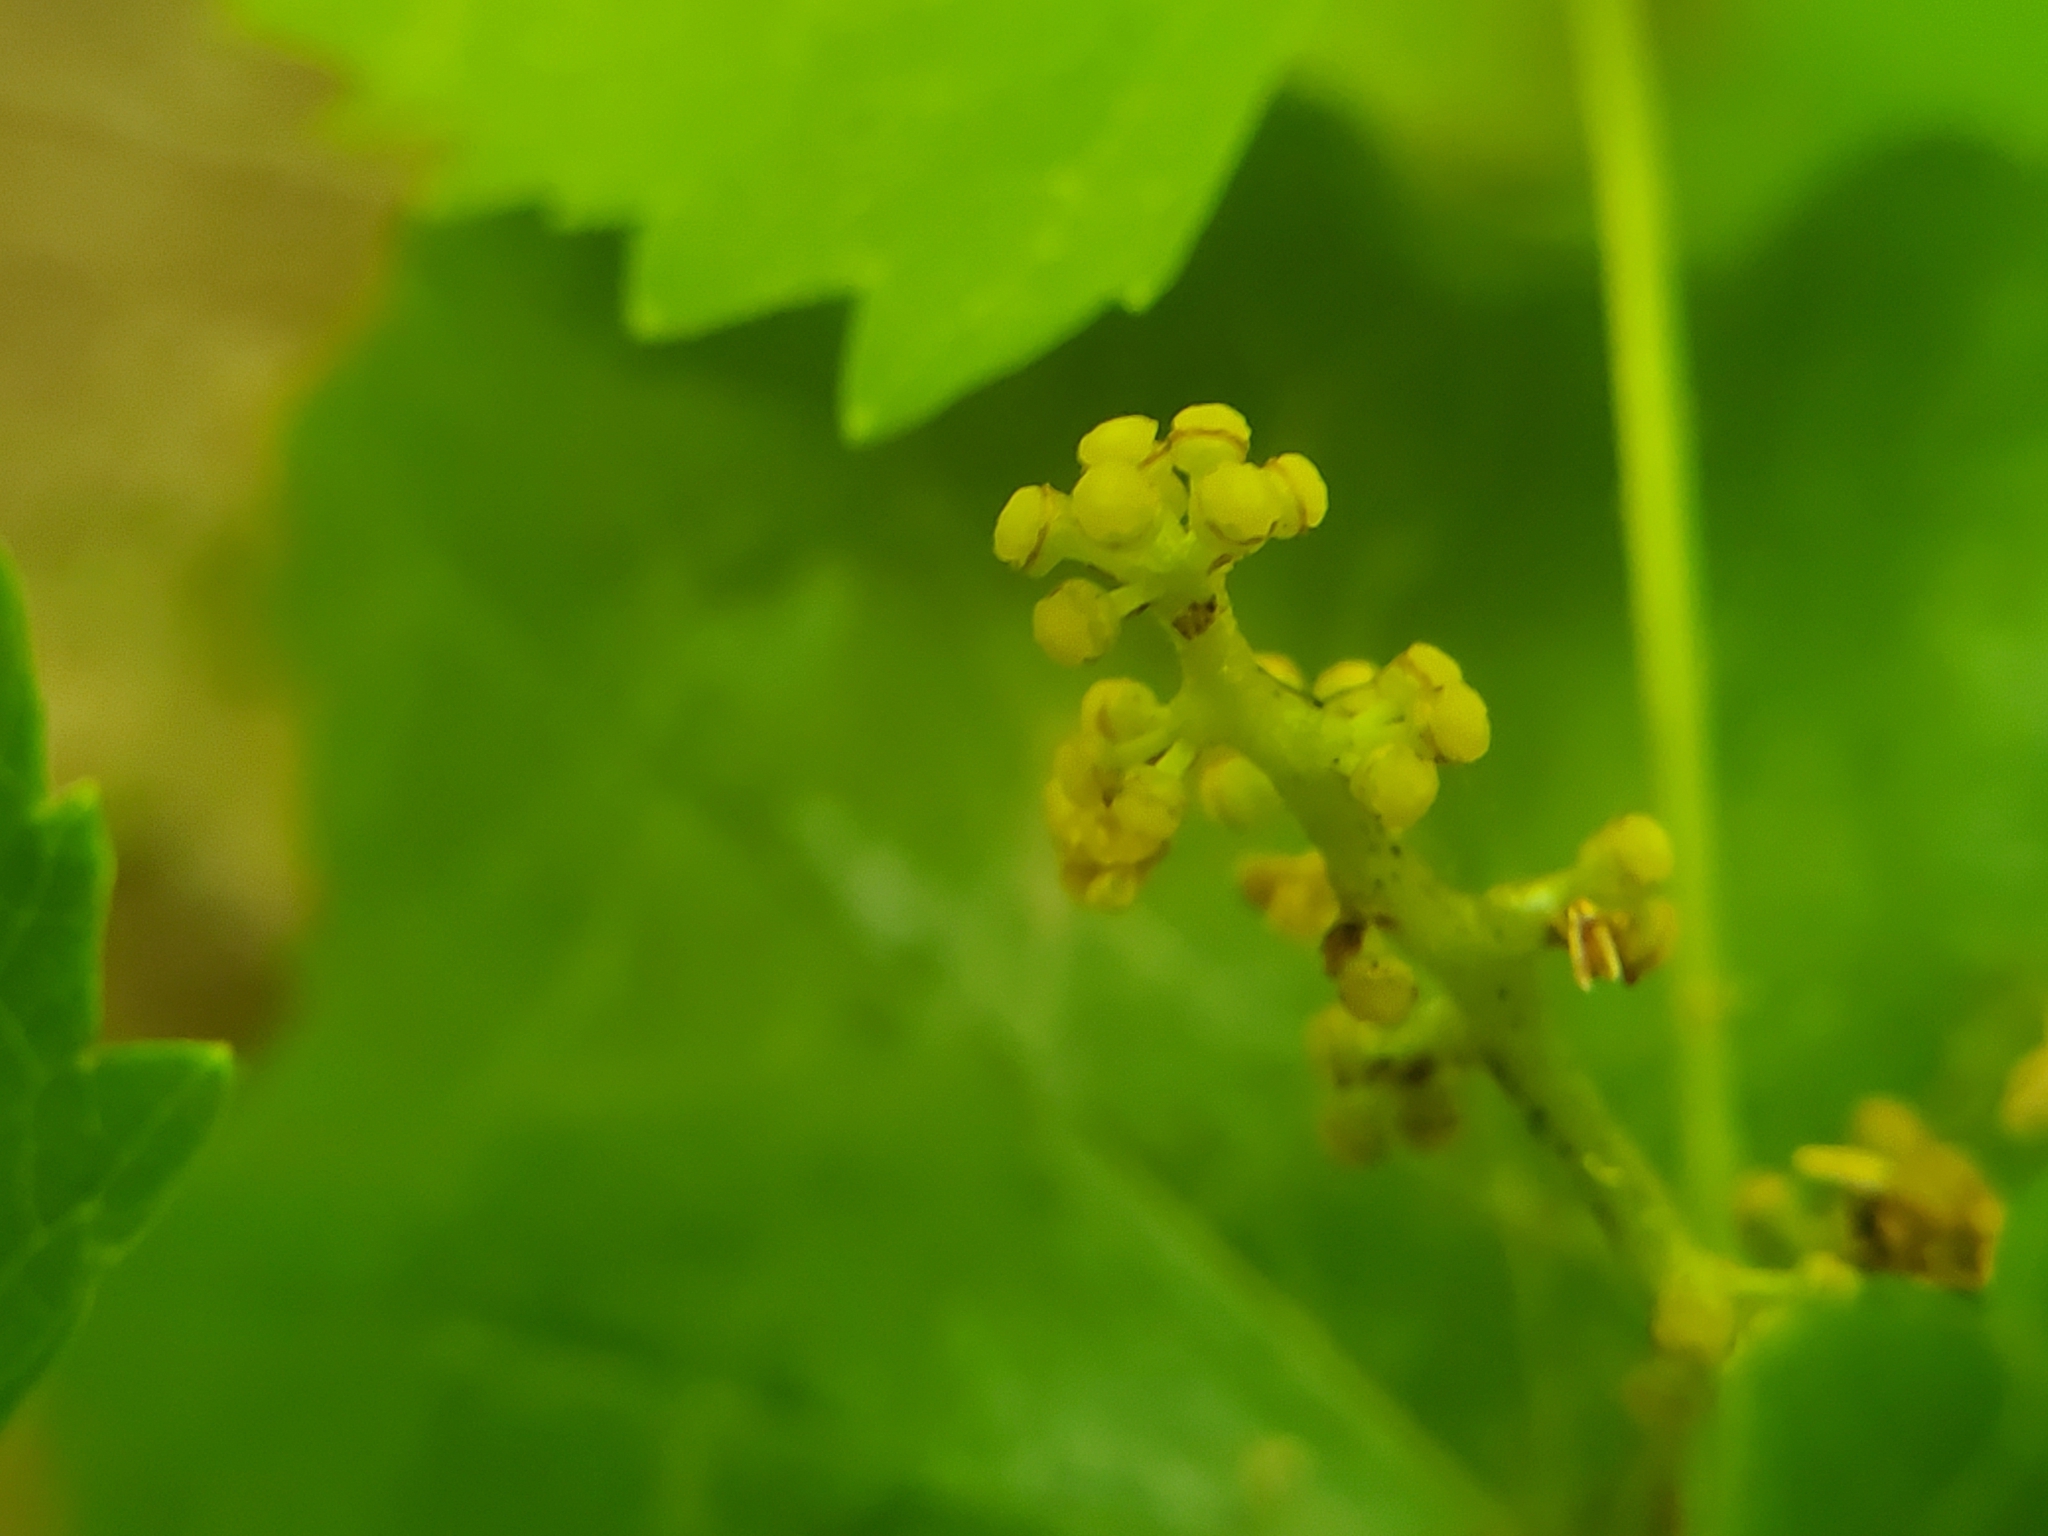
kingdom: Plantae
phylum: Tracheophyta
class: Magnoliopsida
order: Vitales
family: Vitaceae
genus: Vitis
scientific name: Vitis rotundifolia
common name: Muscadine grape
